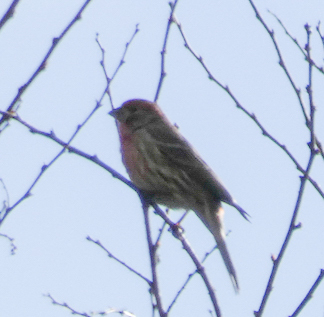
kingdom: Animalia
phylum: Chordata
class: Aves
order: Passeriformes
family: Fringillidae
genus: Haemorhous
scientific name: Haemorhous mexicanus
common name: House finch
